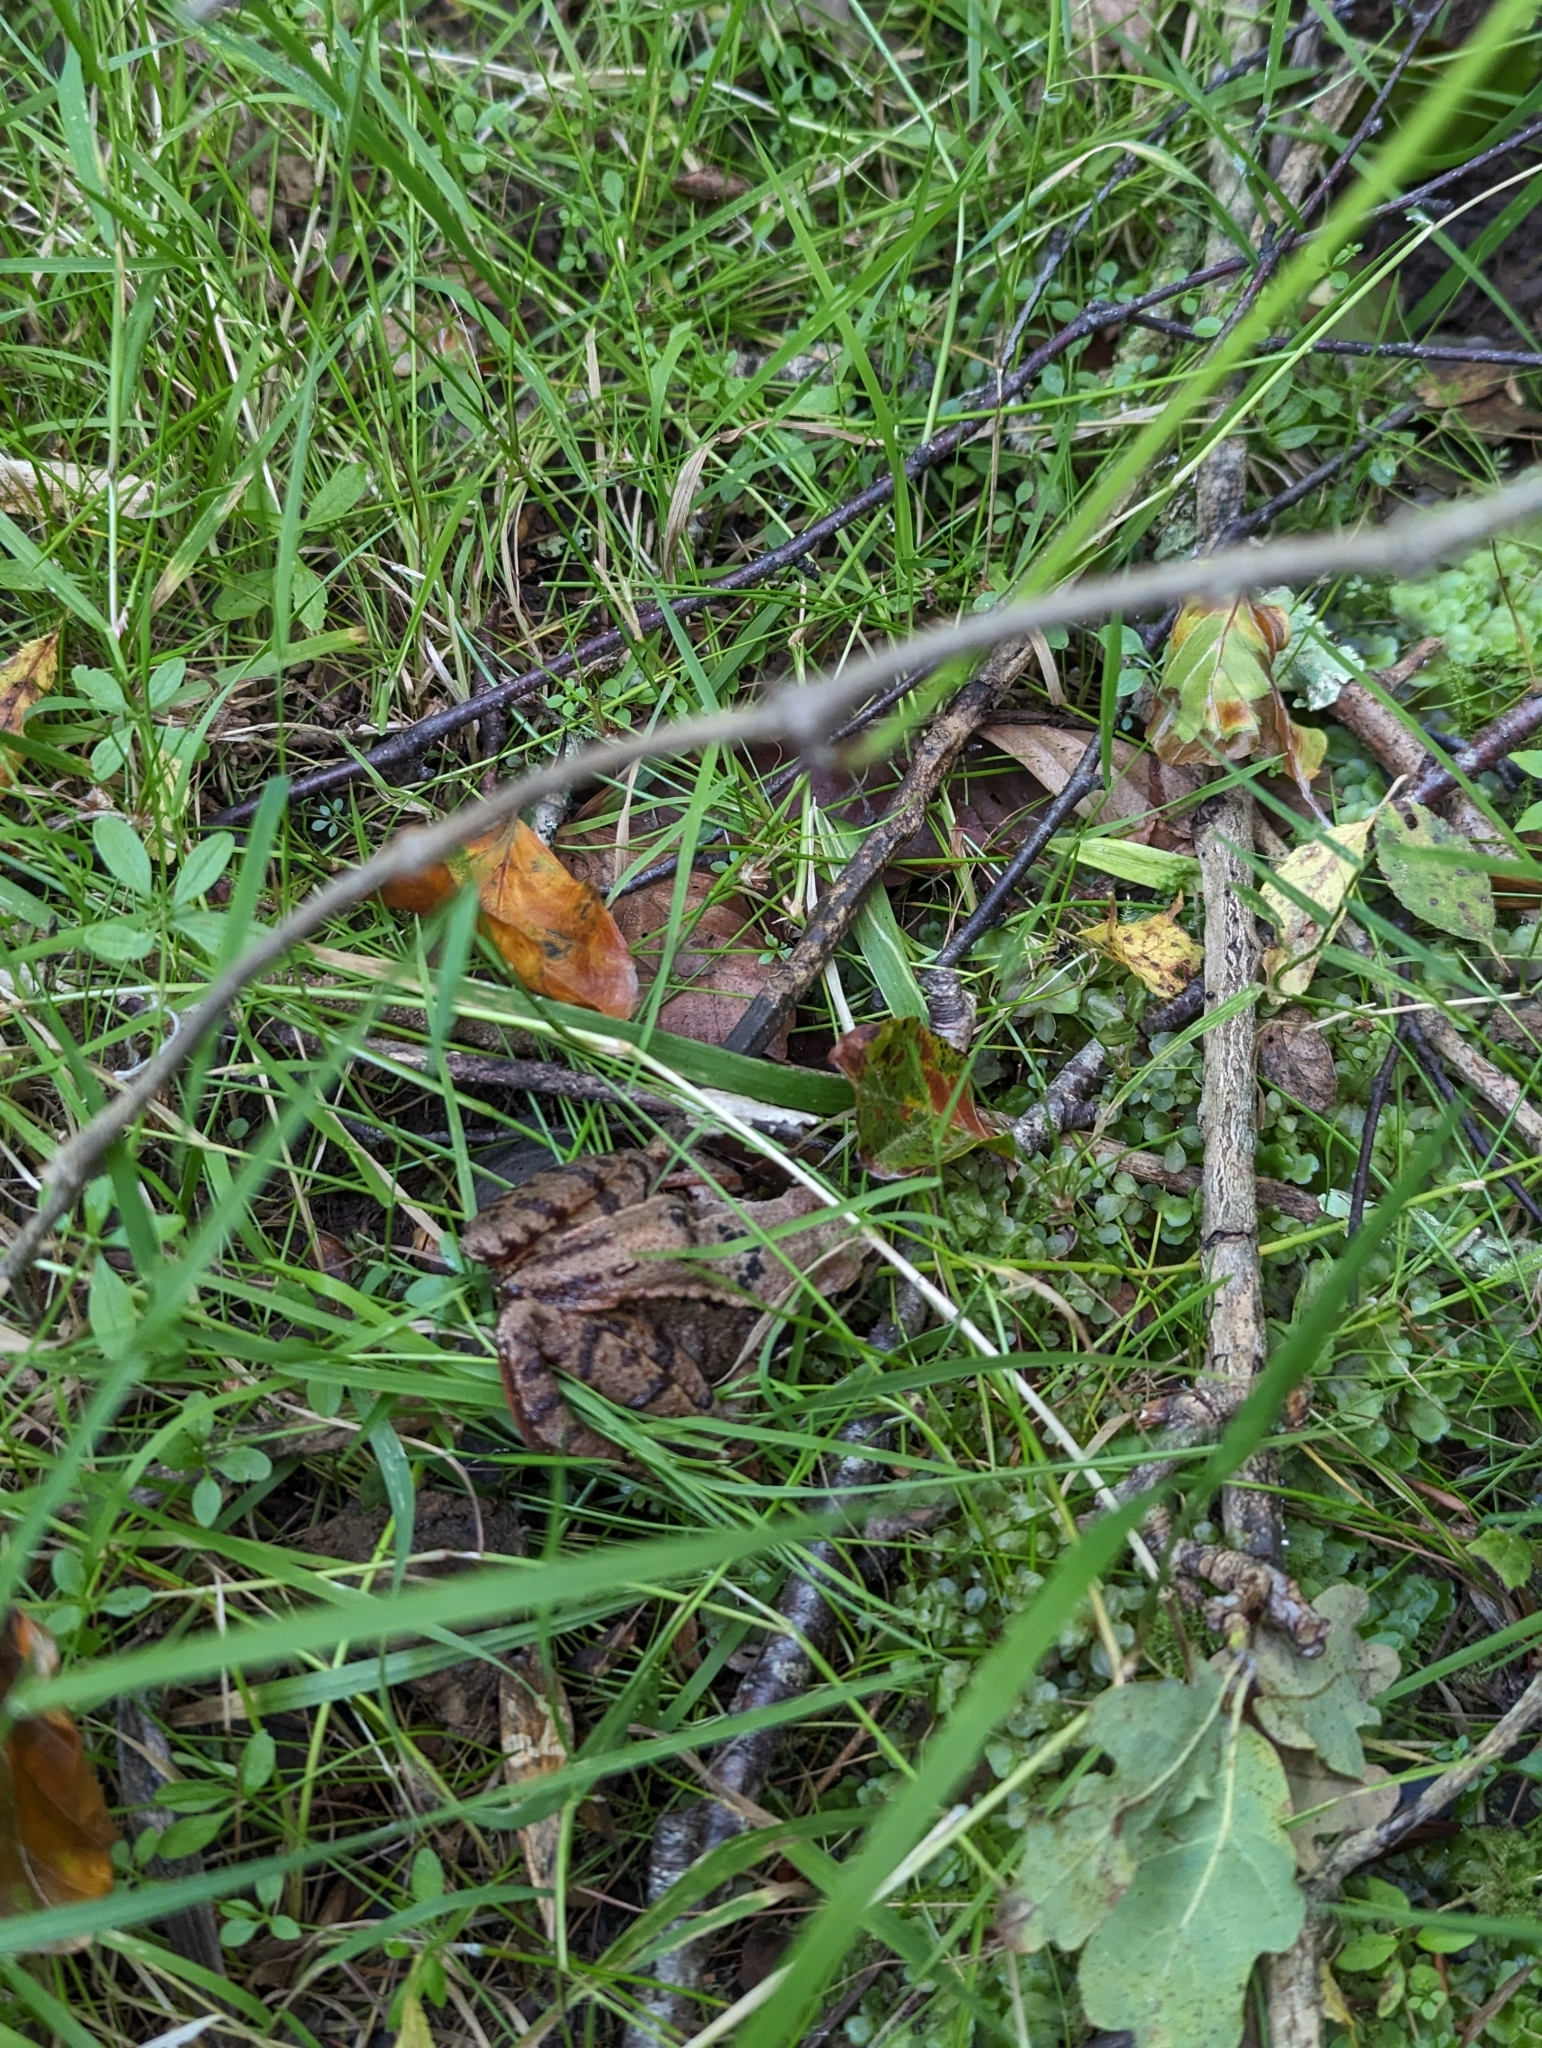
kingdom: Animalia
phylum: Chordata
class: Amphibia
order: Anura
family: Ranidae
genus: Rana
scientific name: Rana temporaria
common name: Common frog
